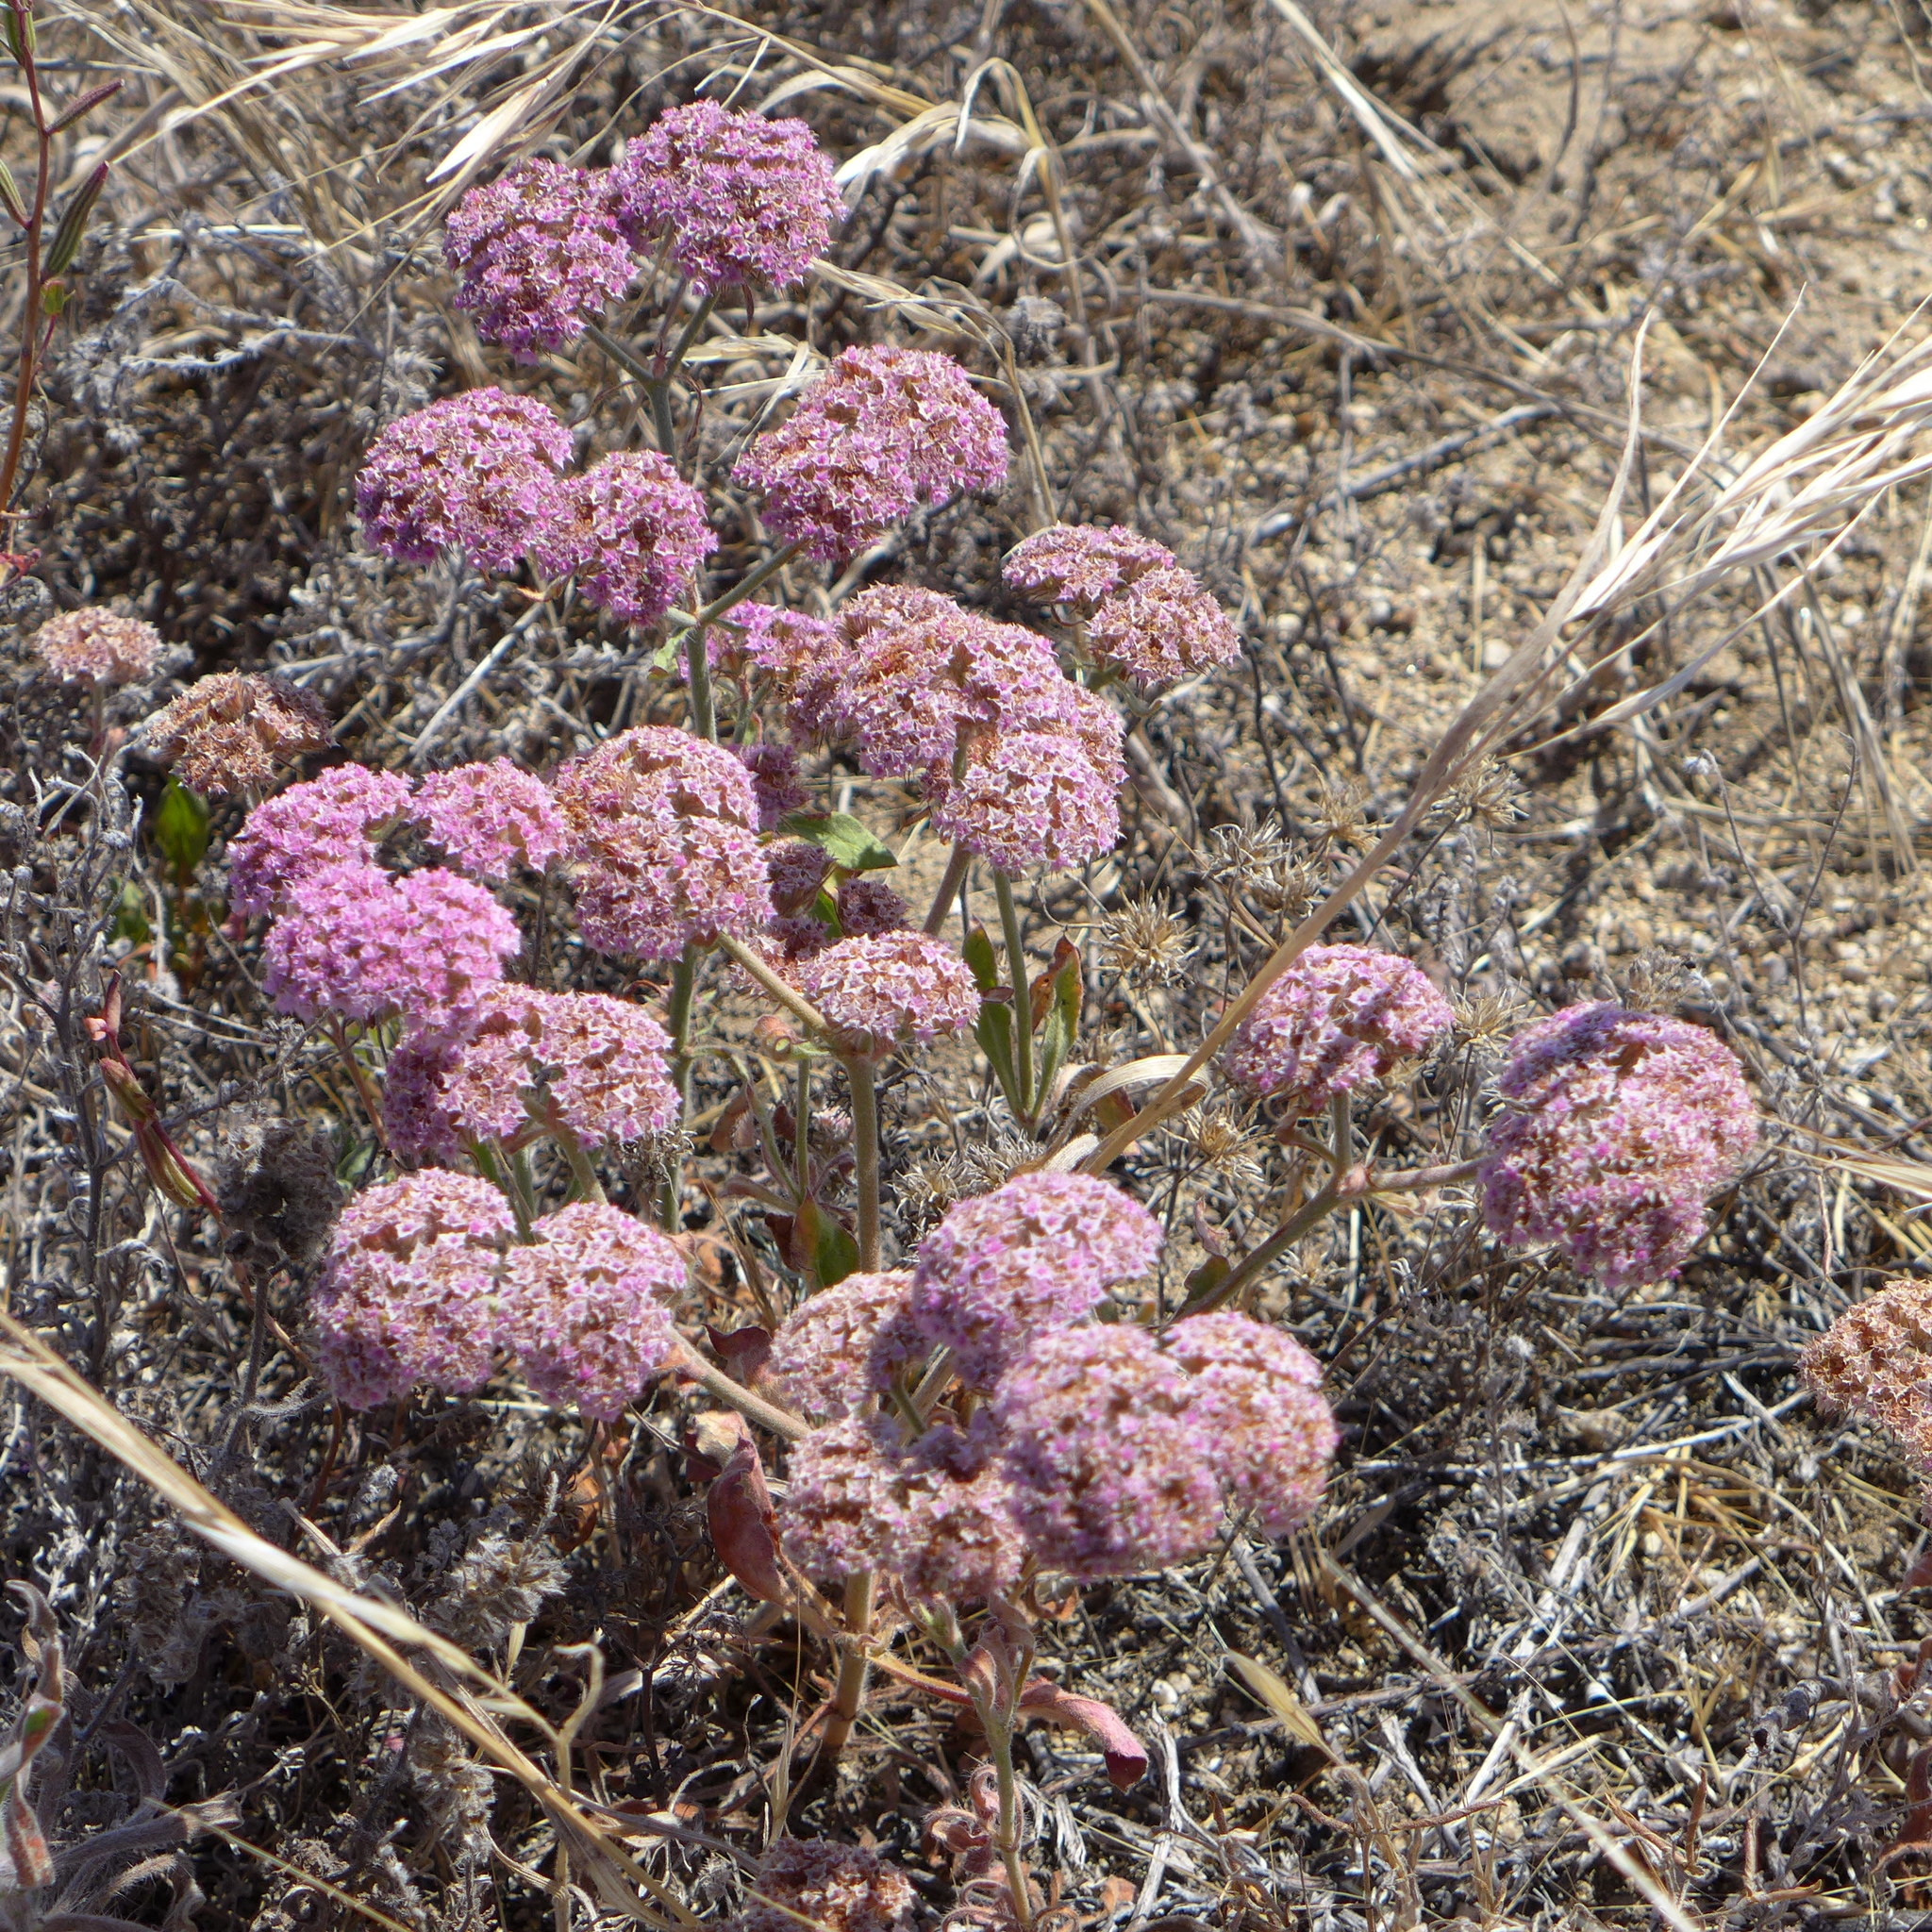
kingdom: Plantae
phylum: Tracheophyta
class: Magnoliopsida
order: Caryophyllales
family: Polygonaceae
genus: Chorizanthe
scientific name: Chorizanthe douglasii
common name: Douglas's spineflower
